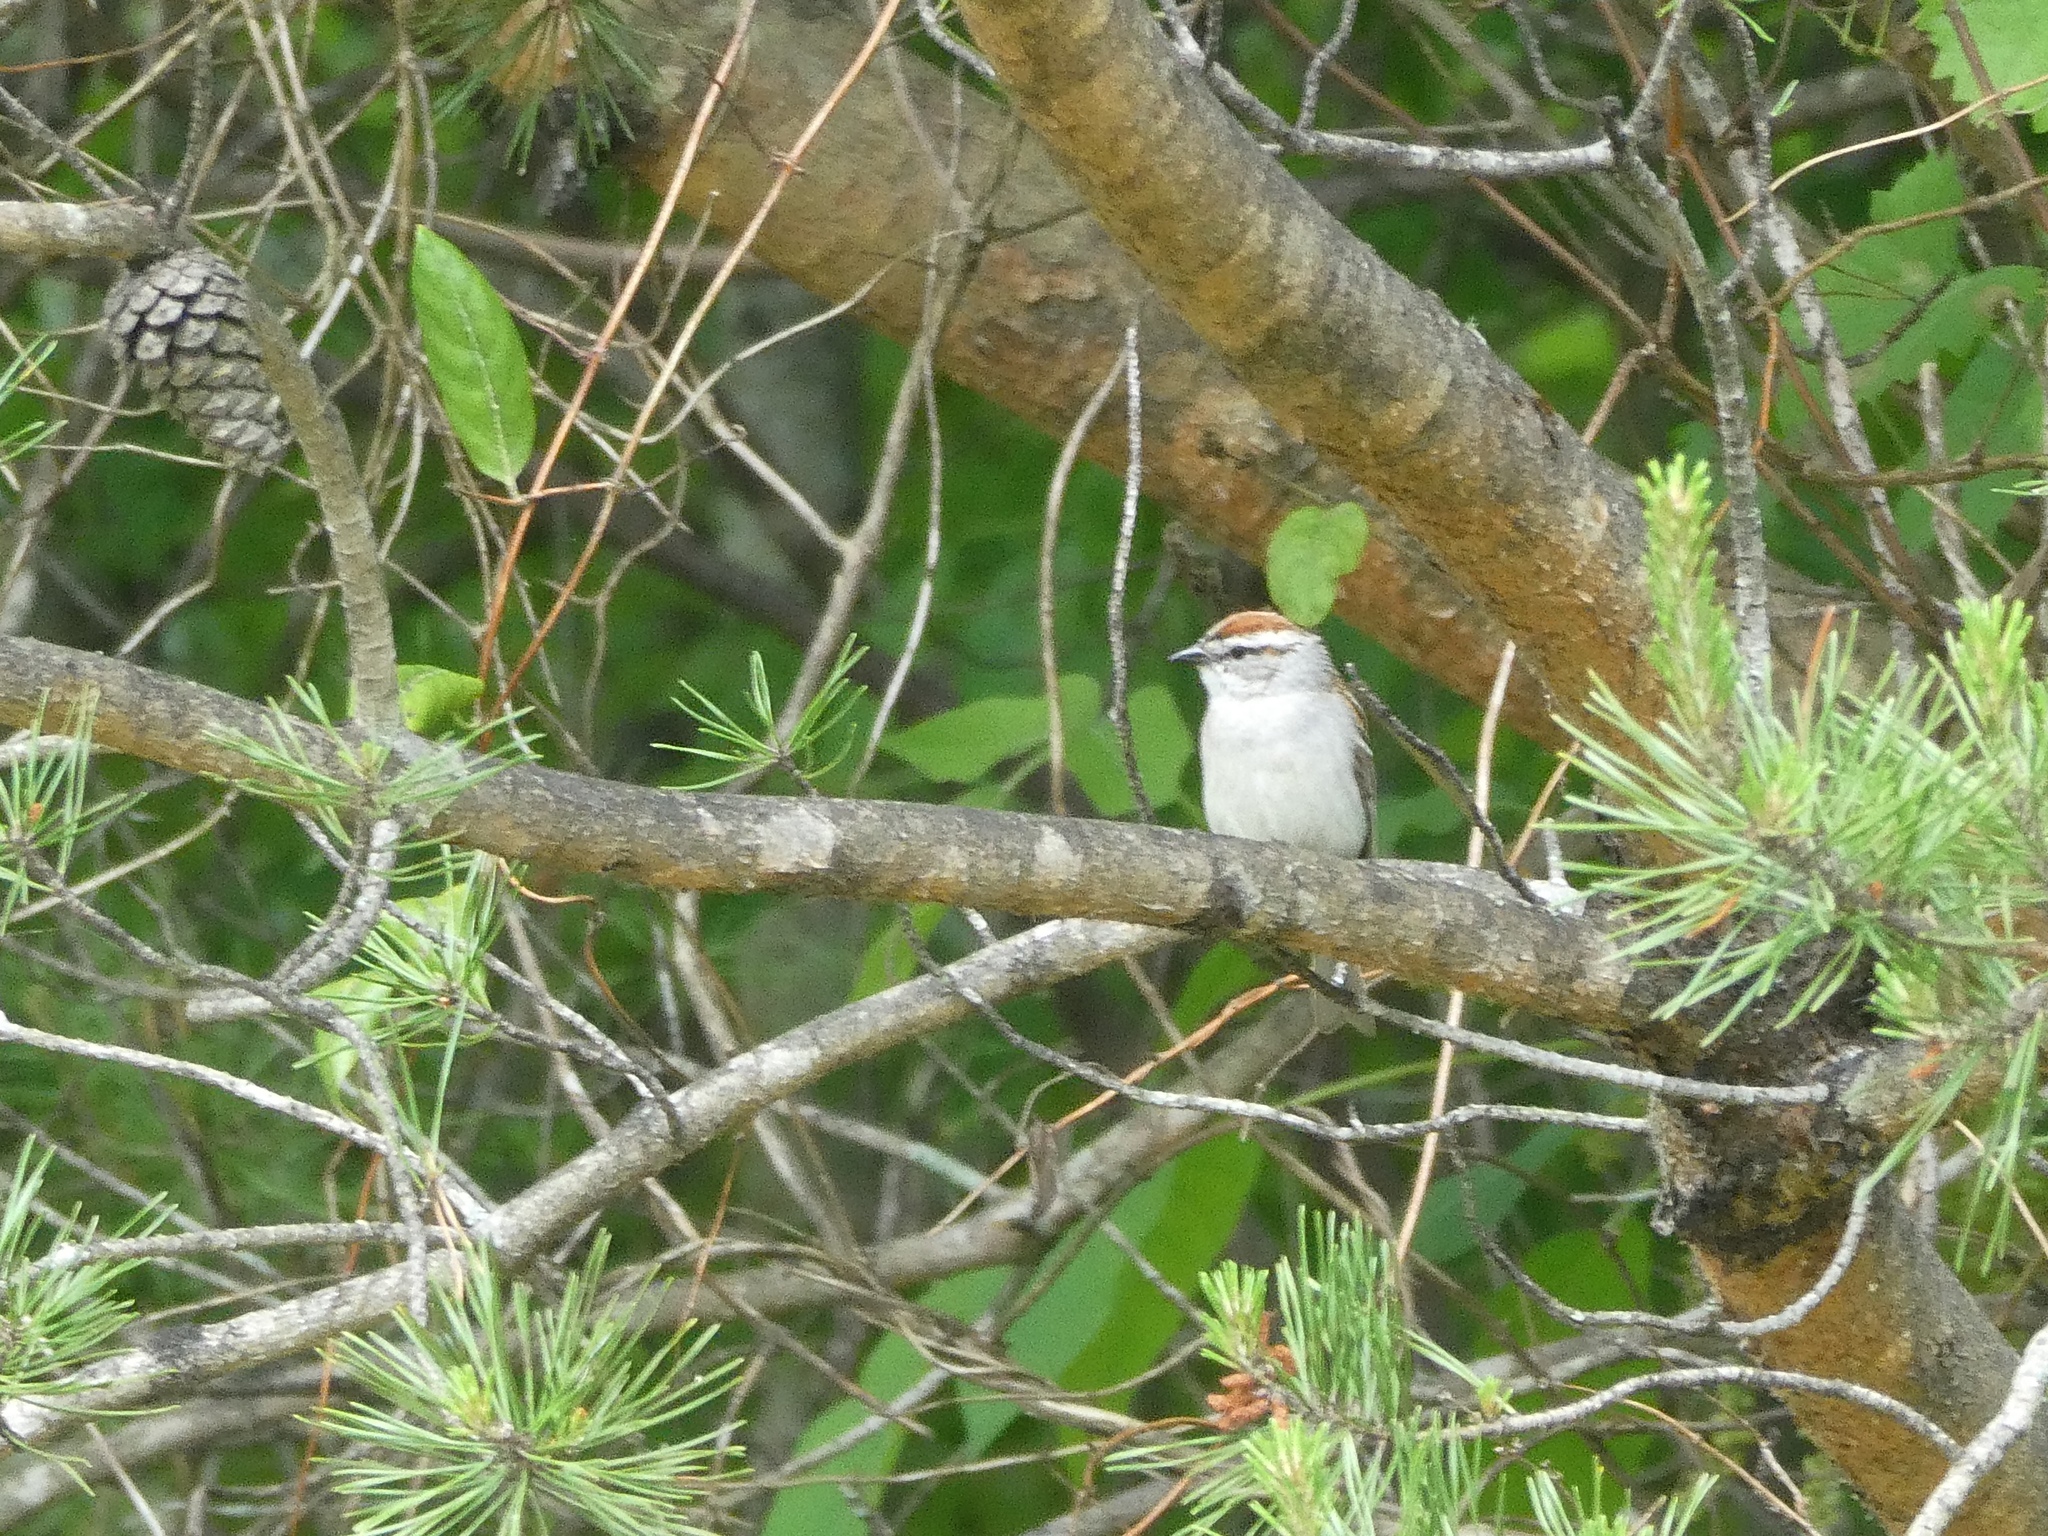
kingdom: Animalia
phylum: Chordata
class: Aves
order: Passeriformes
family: Passerellidae
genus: Spizella
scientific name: Spizella passerina
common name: Chipping sparrow
